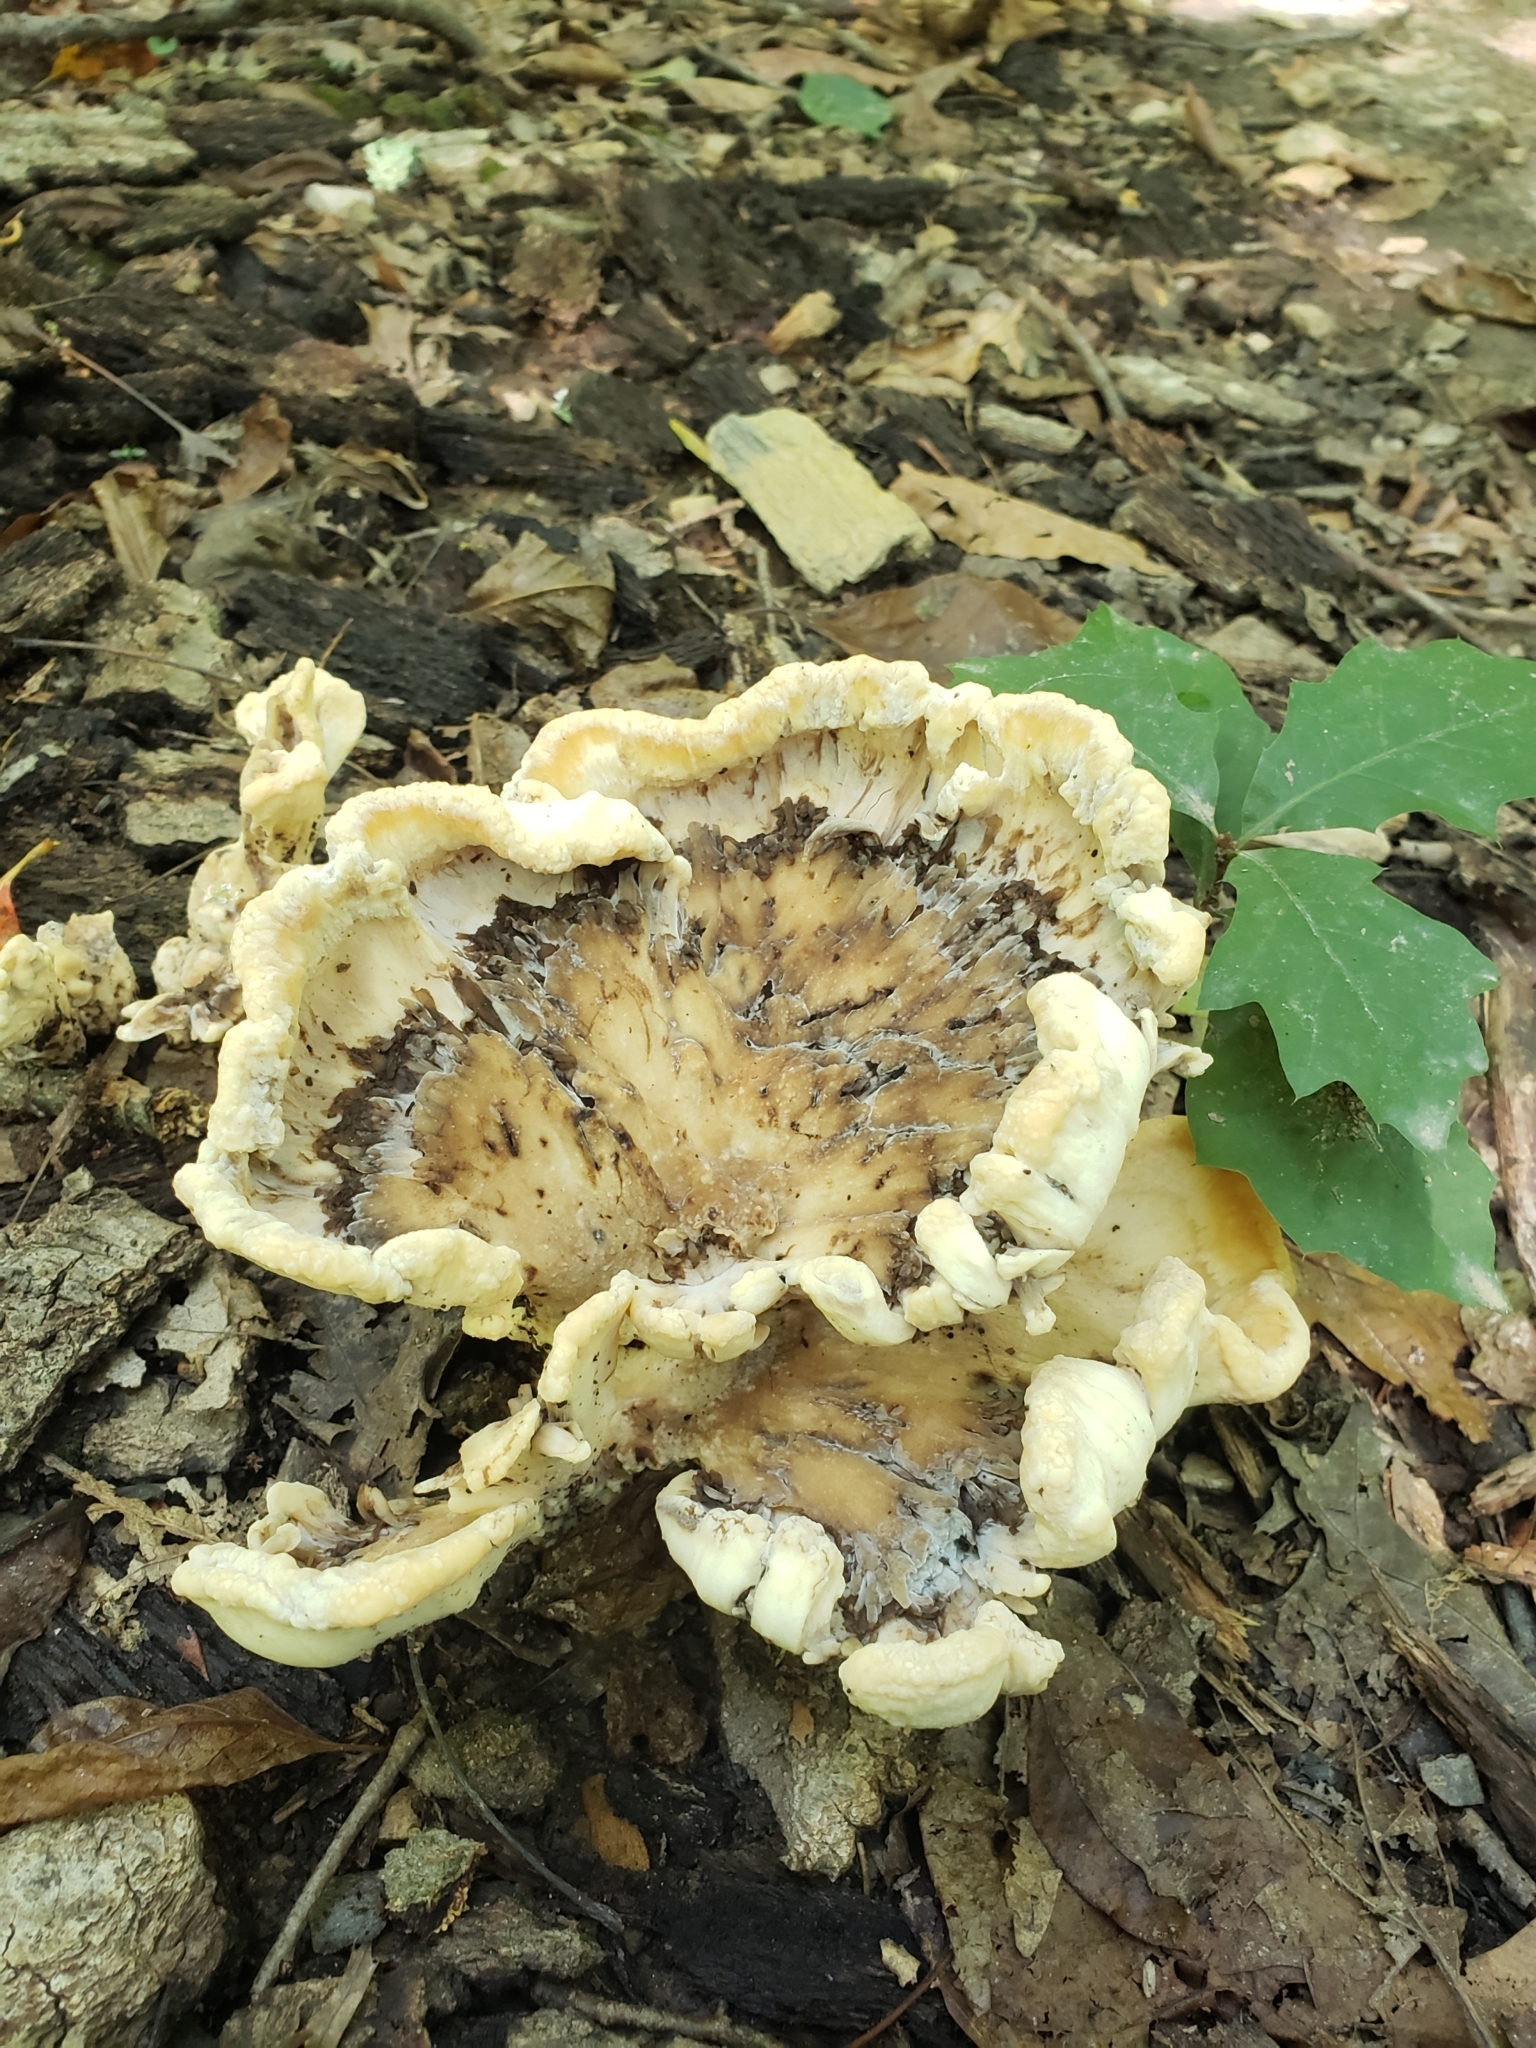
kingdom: Fungi
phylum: Basidiomycota
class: Agaricomycetes
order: Polyporales
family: Meripilaceae
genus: Meripilus
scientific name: Meripilus sumstinei
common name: Black-staining polypore
